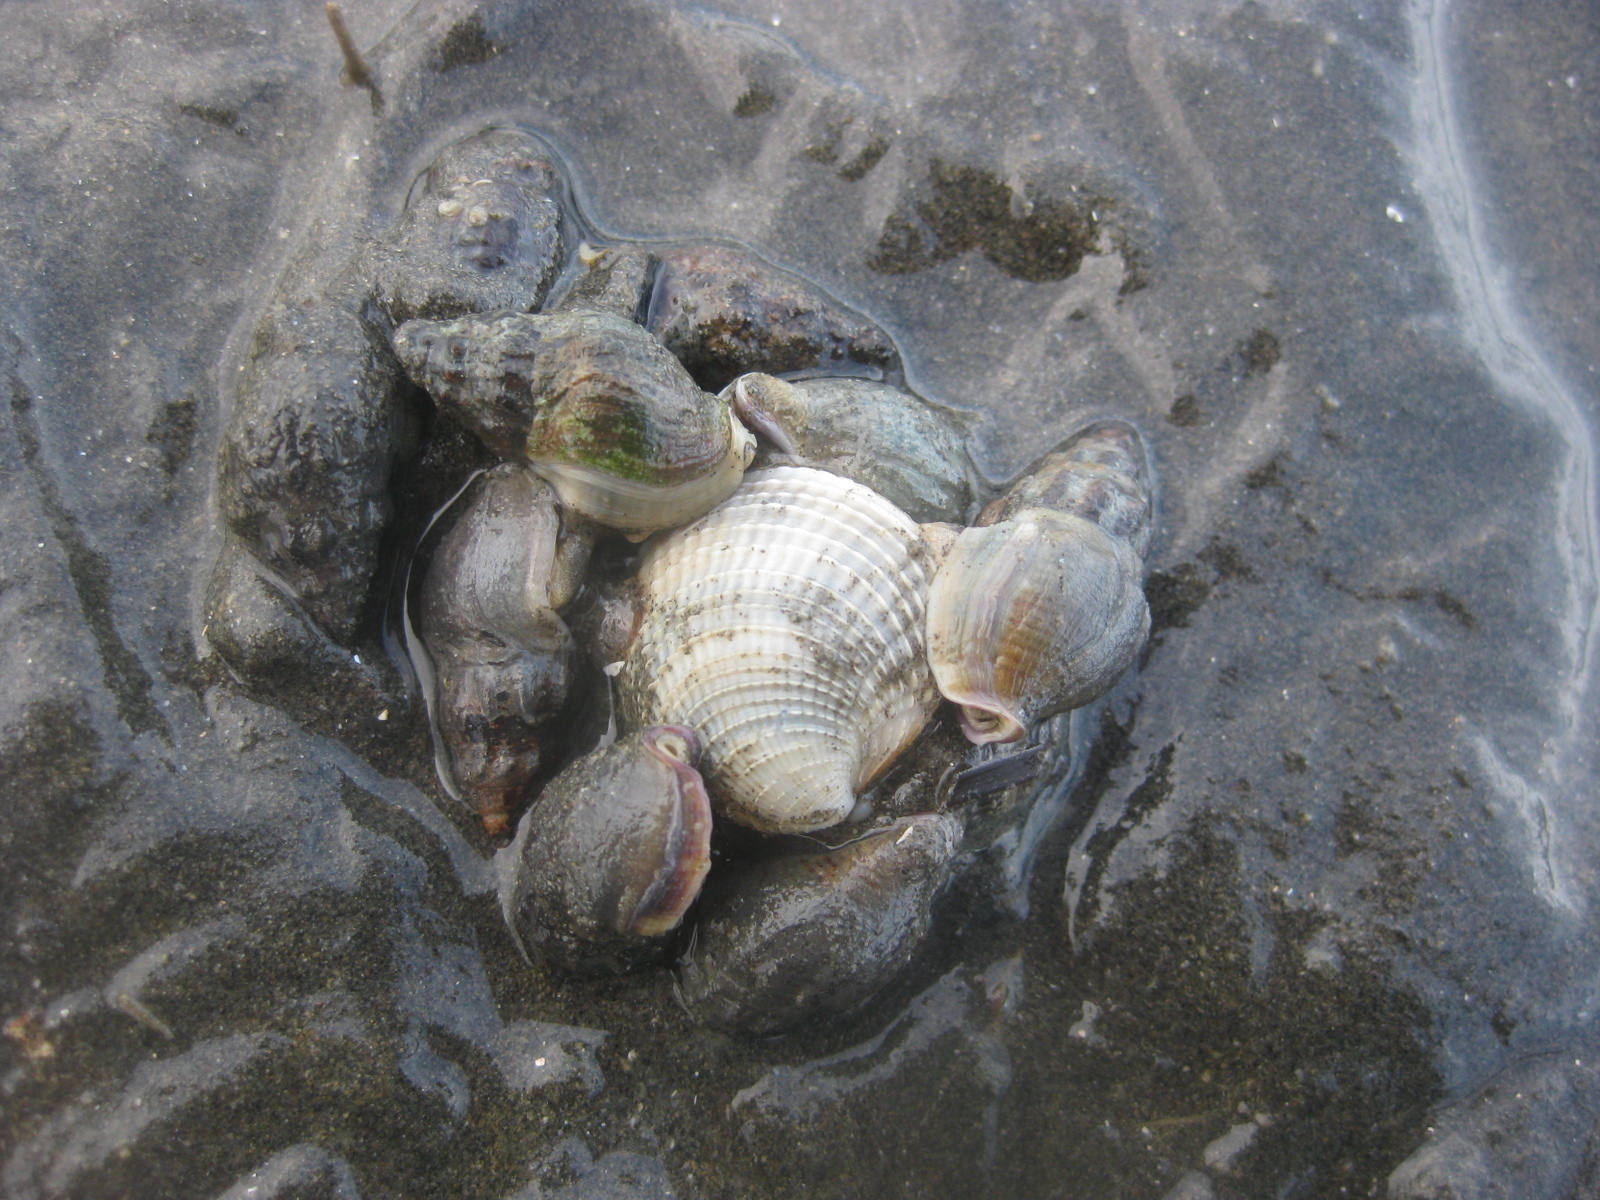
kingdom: Animalia
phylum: Mollusca
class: Bivalvia
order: Venerida
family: Veneridae
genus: Austrovenus
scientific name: Austrovenus stutchburyi
